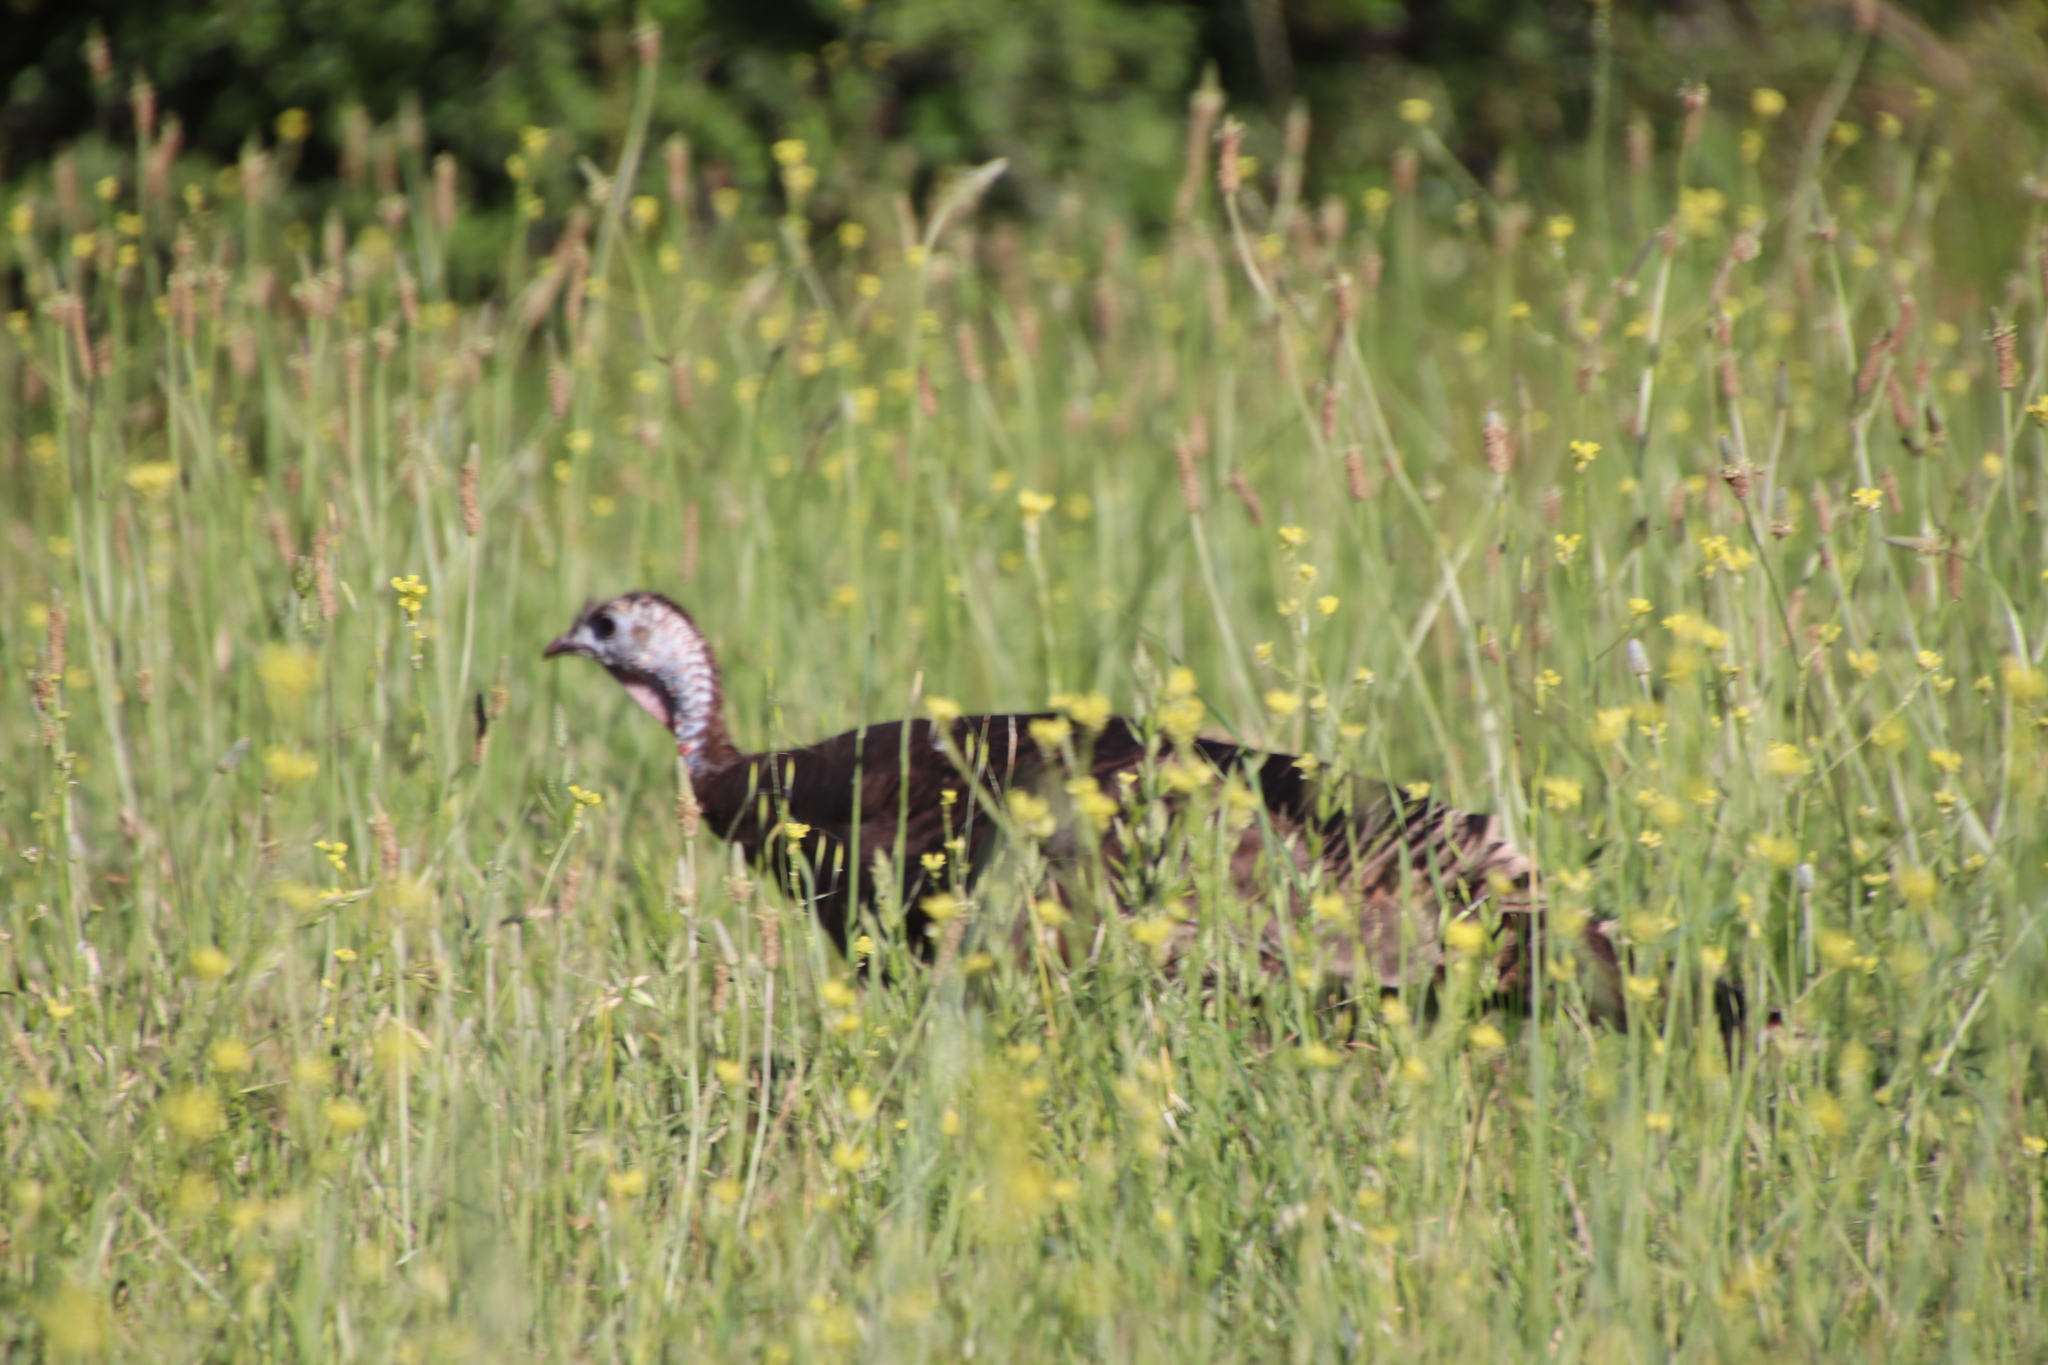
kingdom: Animalia
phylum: Chordata
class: Aves
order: Galliformes
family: Phasianidae
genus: Meleagris
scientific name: Meleagris gallopavo
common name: Wild turkey
